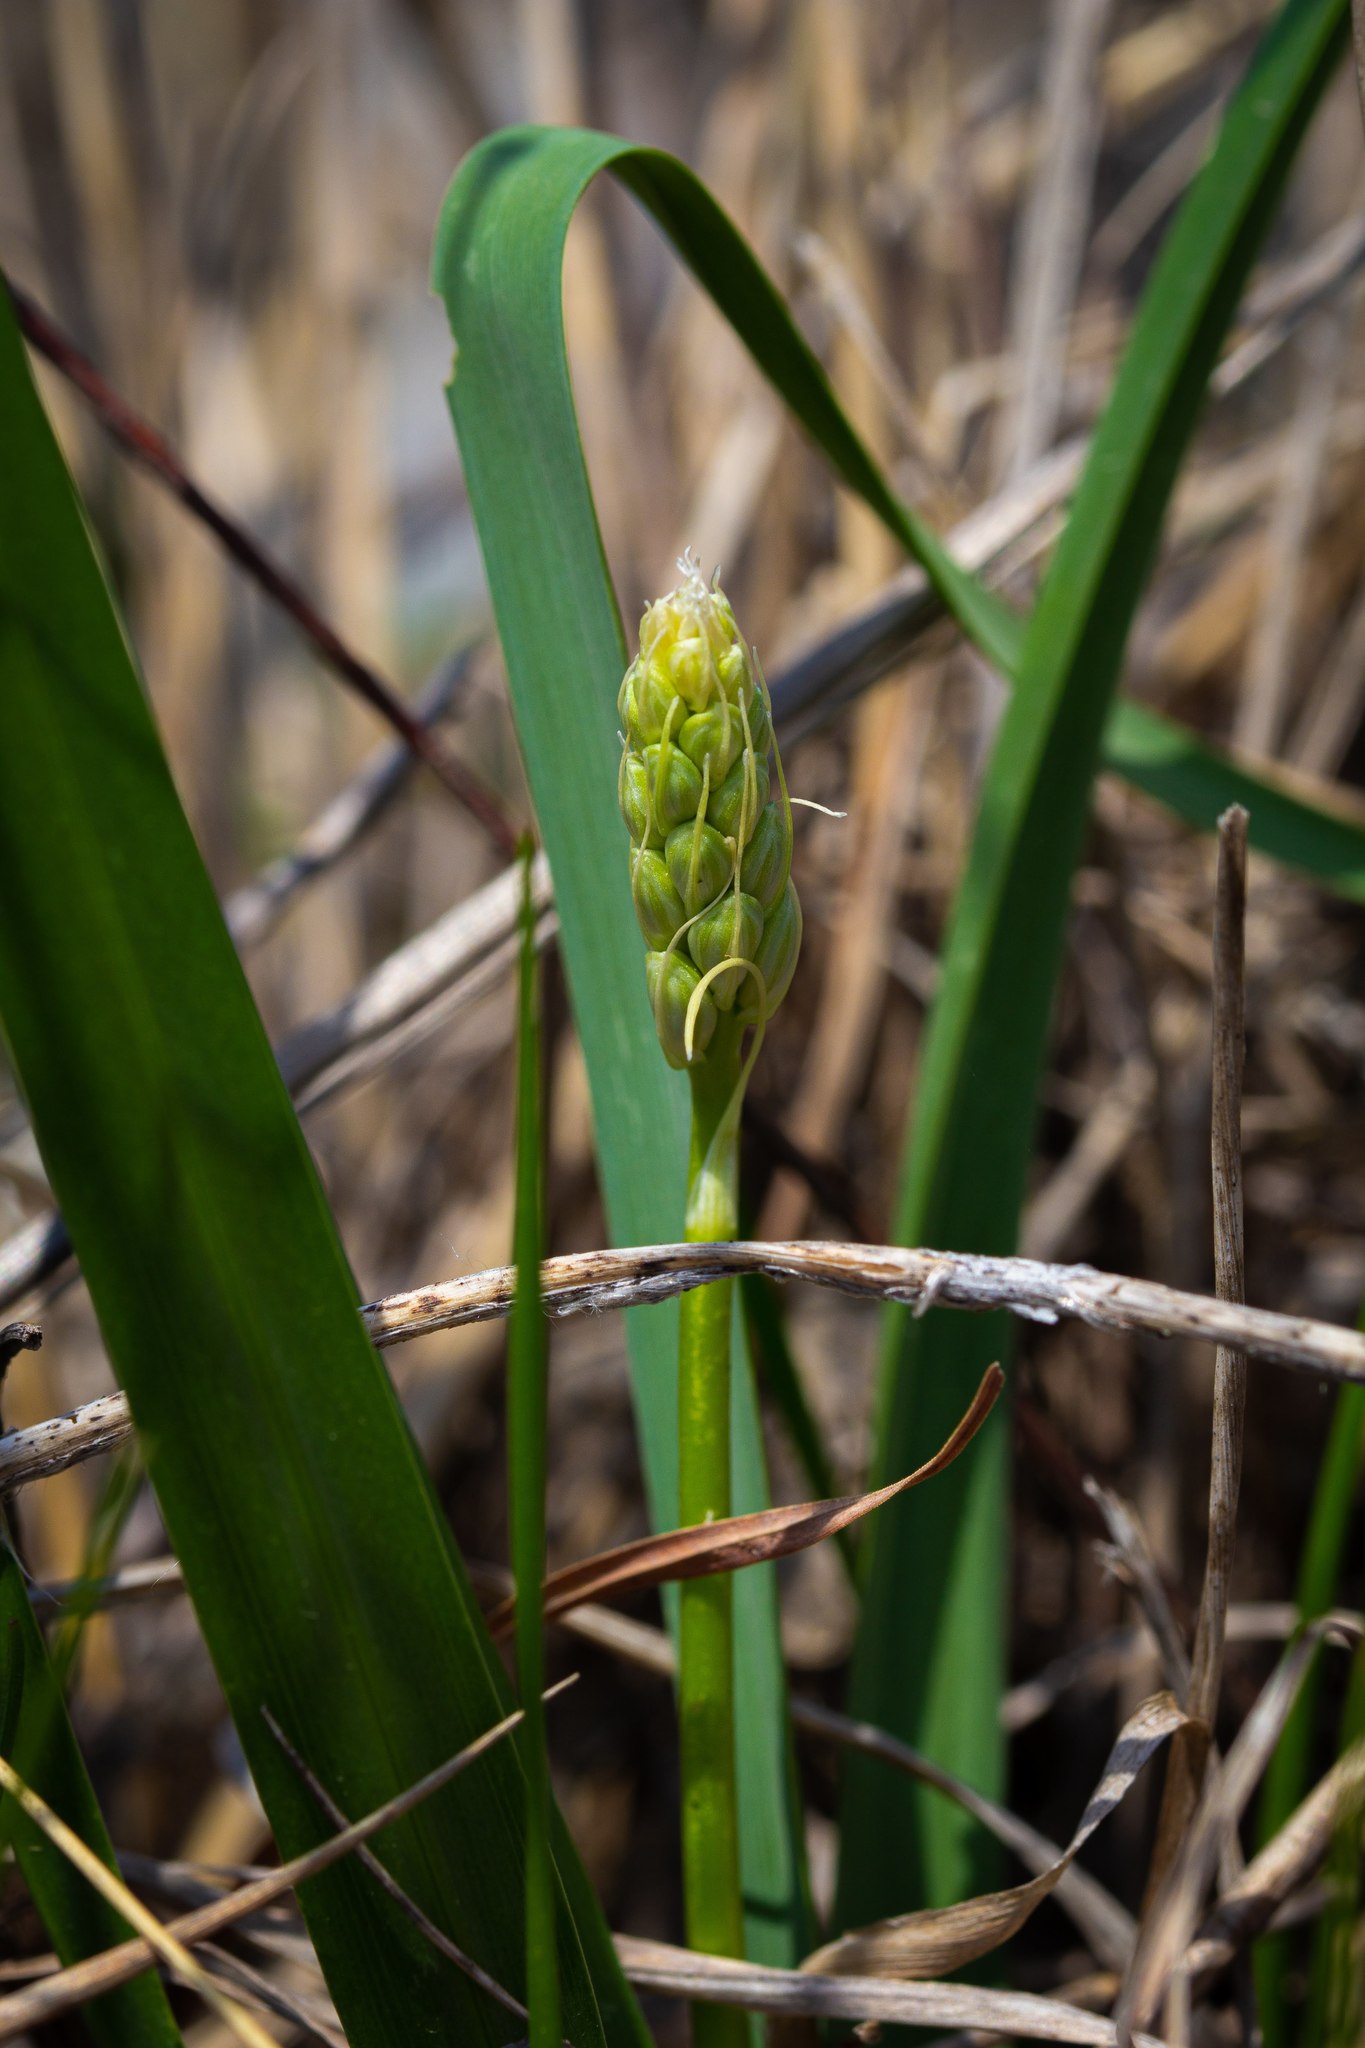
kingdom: Plantae
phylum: Tracheophyta
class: Liliopsida
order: Asparagales
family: Asparagaceae
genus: Camassia
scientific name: Camassia scilloides
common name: Wild hyacinth
